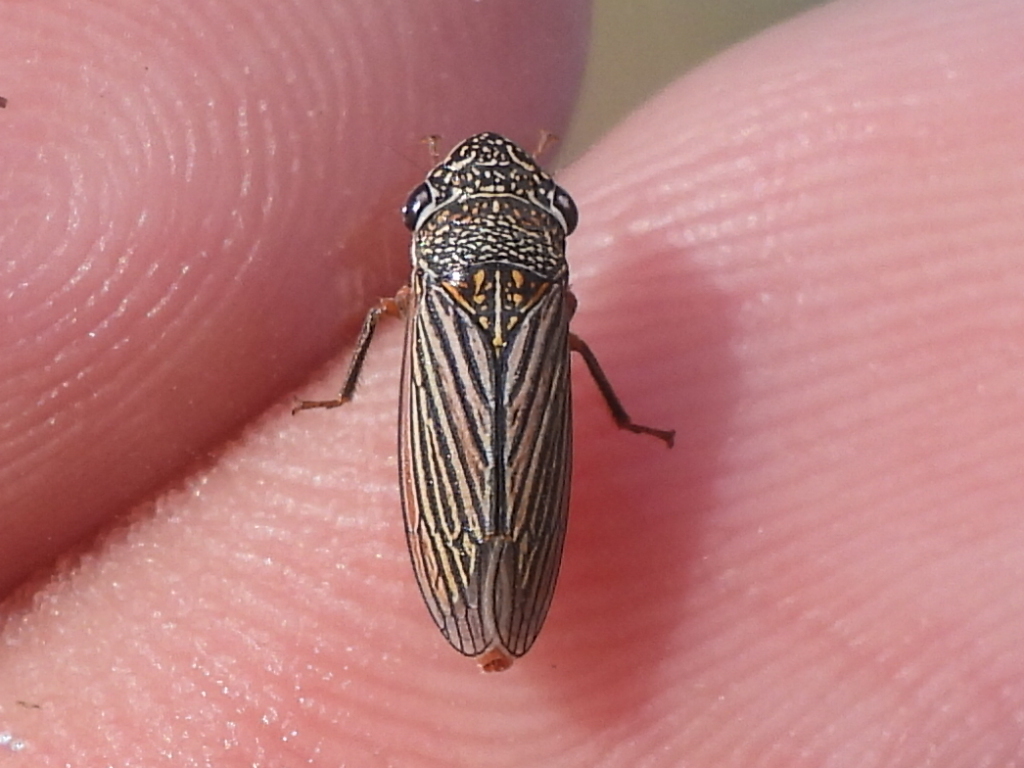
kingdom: Animalia
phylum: Arthropoda
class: Insecta
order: Hemiptera
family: Cicadellidae
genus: Cuerna
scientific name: Cuerna costalis
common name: Lateral-lined sharpshooter
